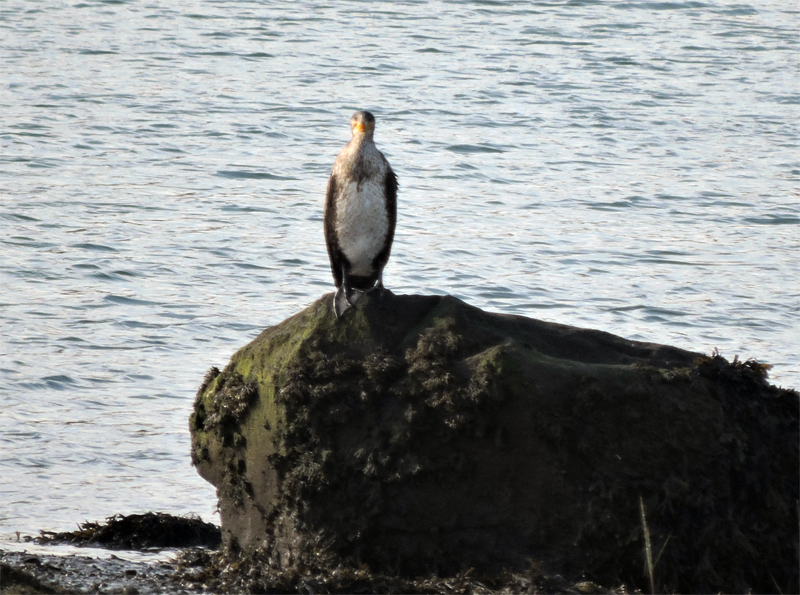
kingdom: Animalia
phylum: Chordata
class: Aves
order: Suliformes
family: Phalacrocoracidae
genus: Phalacrocorax
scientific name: Phalacrocorax carbo
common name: Great cormorant
